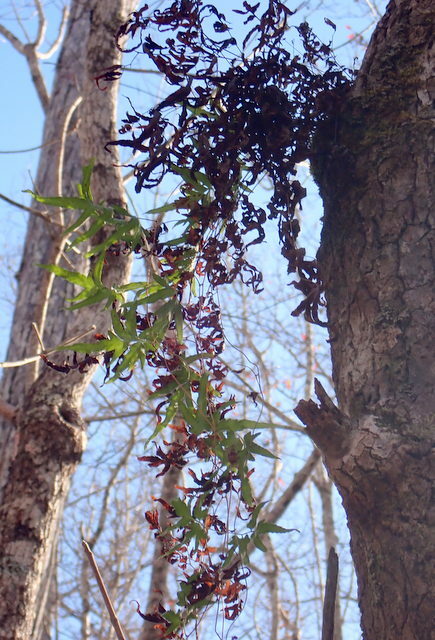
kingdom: Plantae
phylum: Tracheophyta
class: Polypodiopsida
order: Schizaeales
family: Lygodiaceae
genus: Lygodium
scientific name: Lygodium japonicum
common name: Japanese climbing fern
